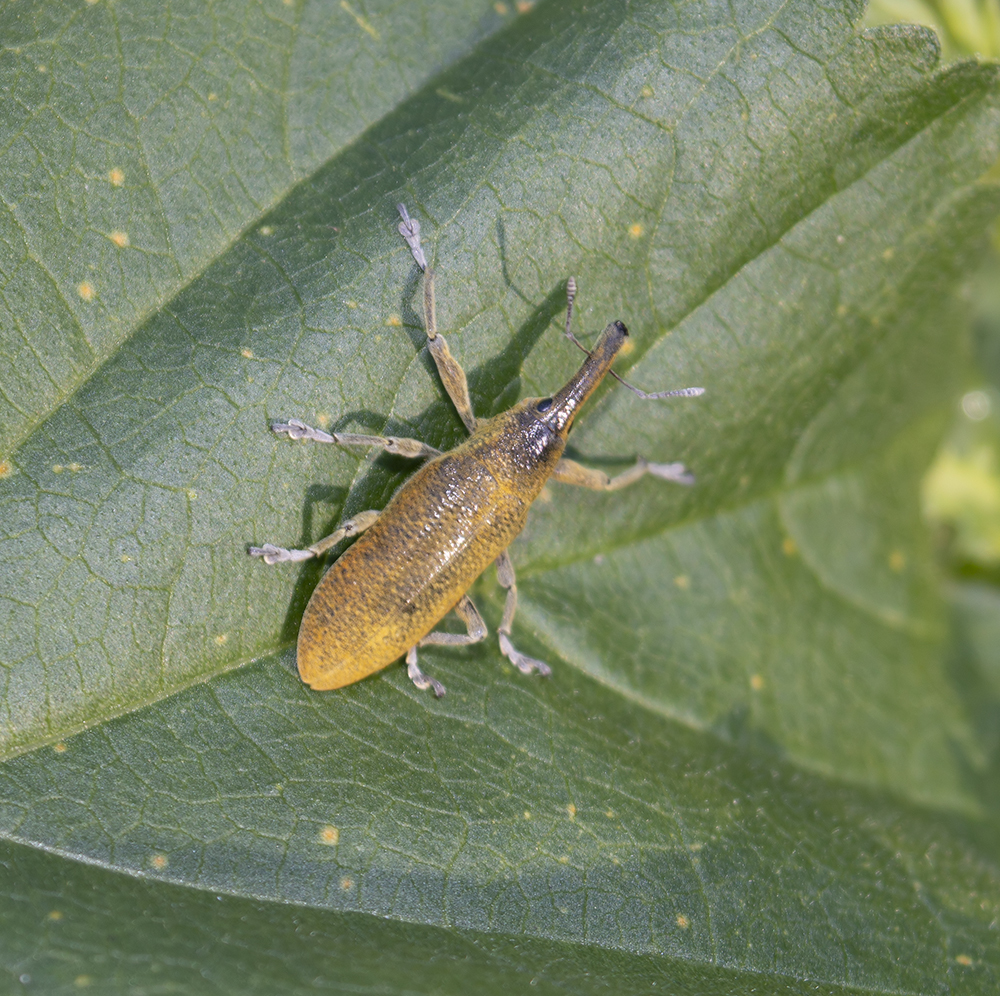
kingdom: Animalia
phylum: Arthropoda
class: Insecta
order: Coleoptera
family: Curculionidae
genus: Lixus
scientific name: Lixus pulverulentus
